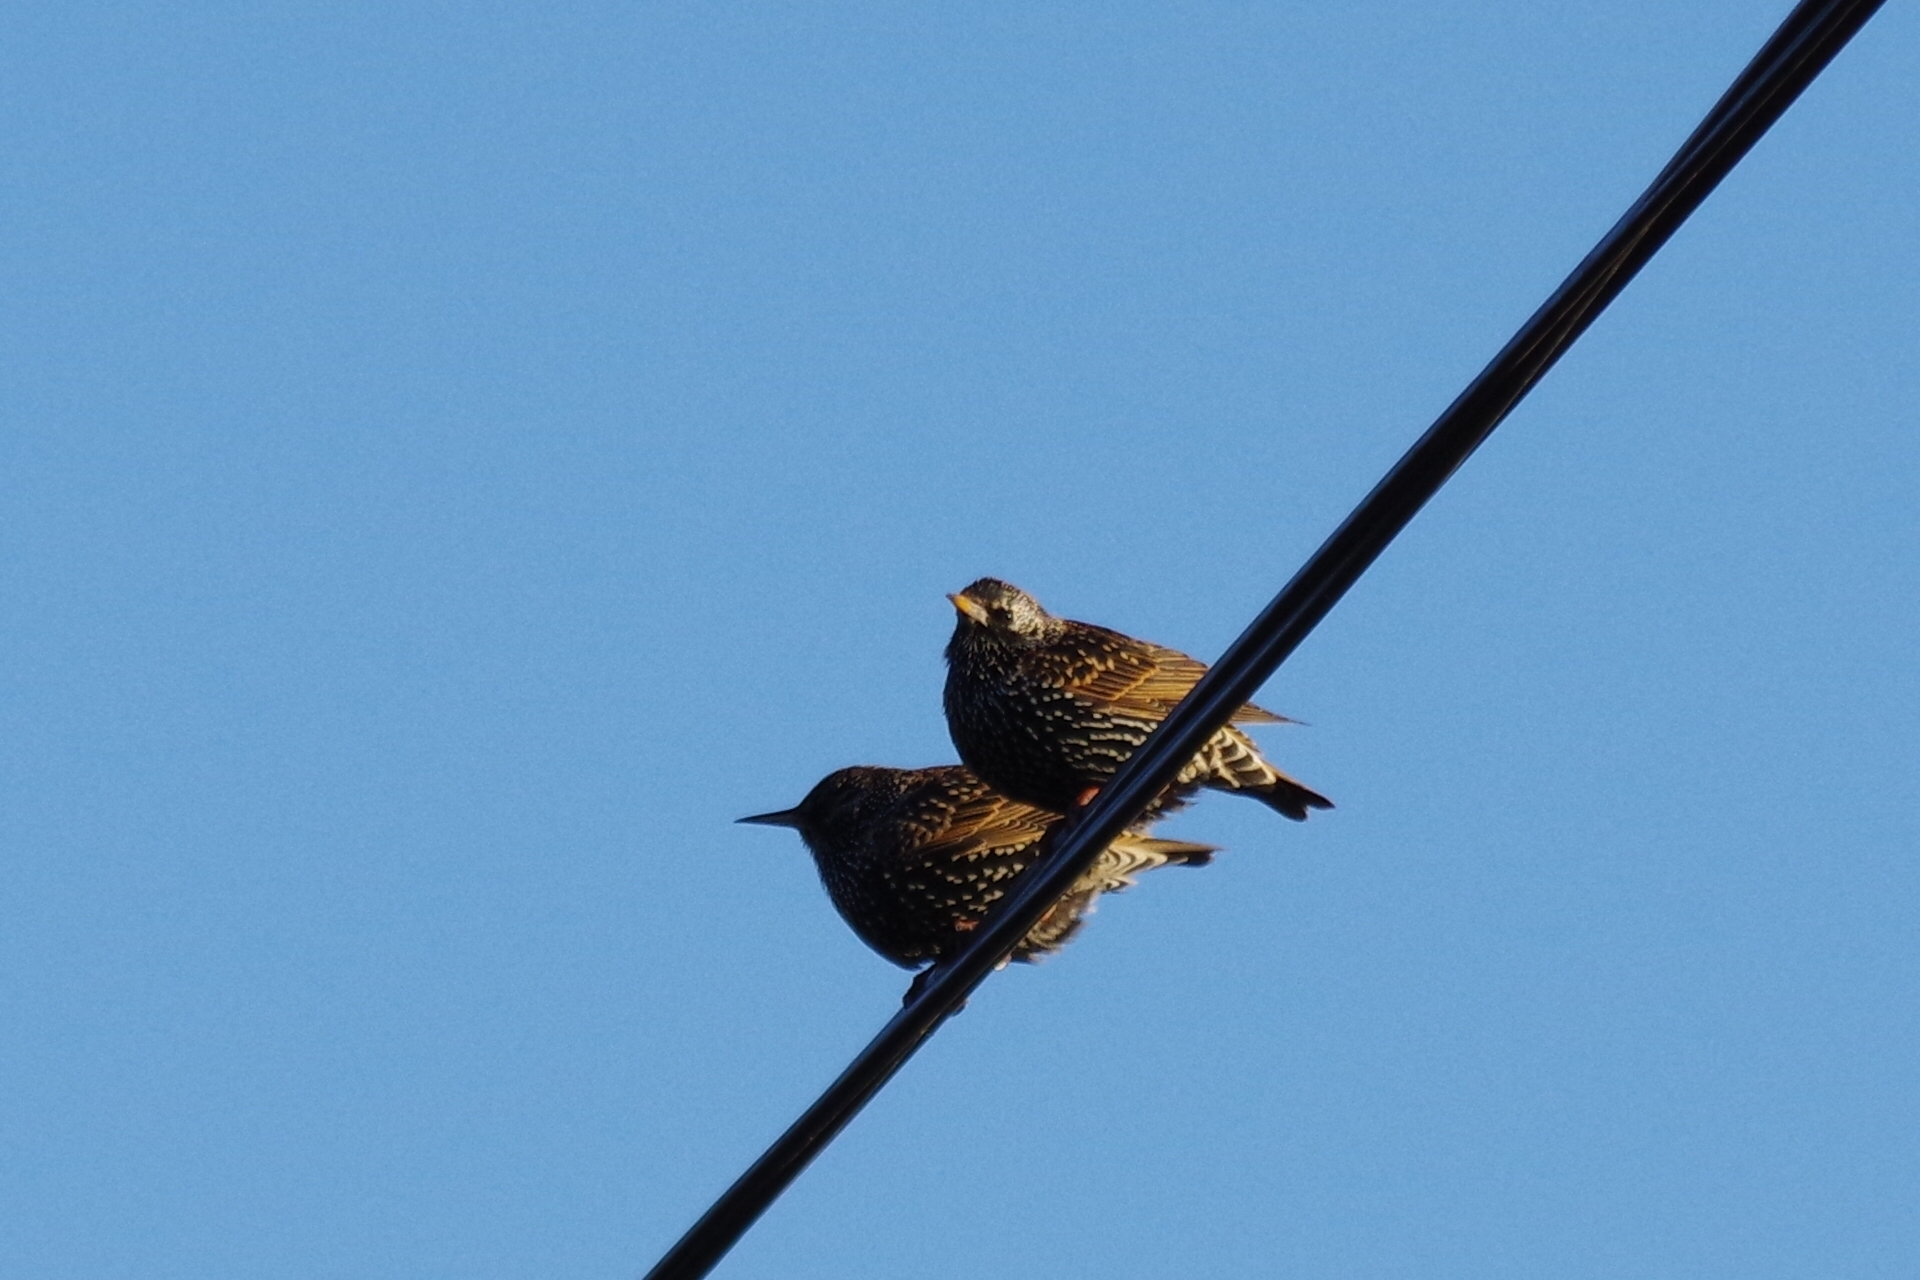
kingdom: Animalia
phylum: Chordata
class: Aves
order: Passeriformes
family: Sturnidae
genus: Sturnus
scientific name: Sturnus vulgaris
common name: Common starling
